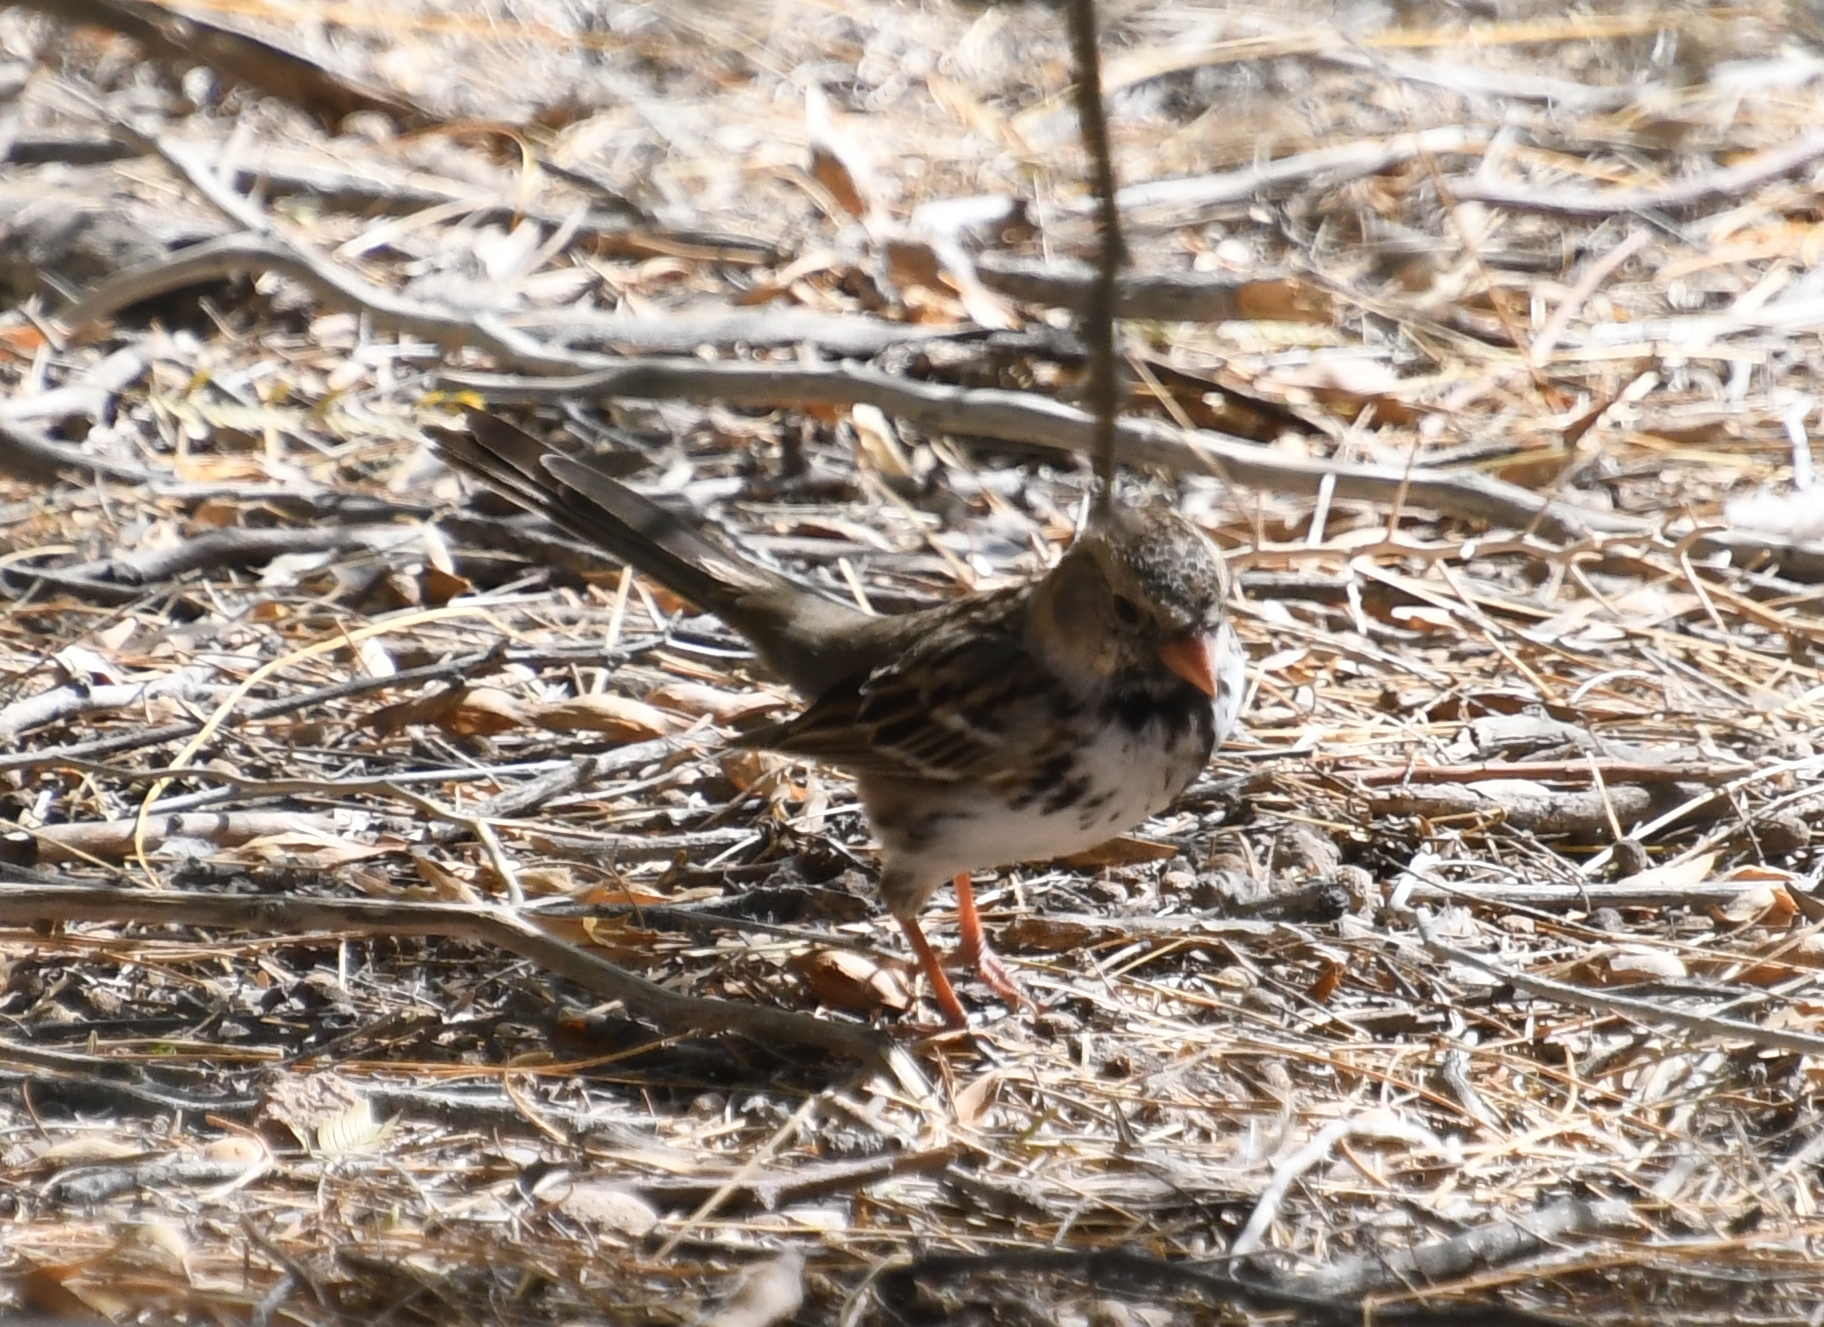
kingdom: Animalia
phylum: Chordata
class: Aves
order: Passeriformes
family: Passerellidae
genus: Zonotrichia
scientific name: Zonotrichia querula
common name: Harris's sparrow
